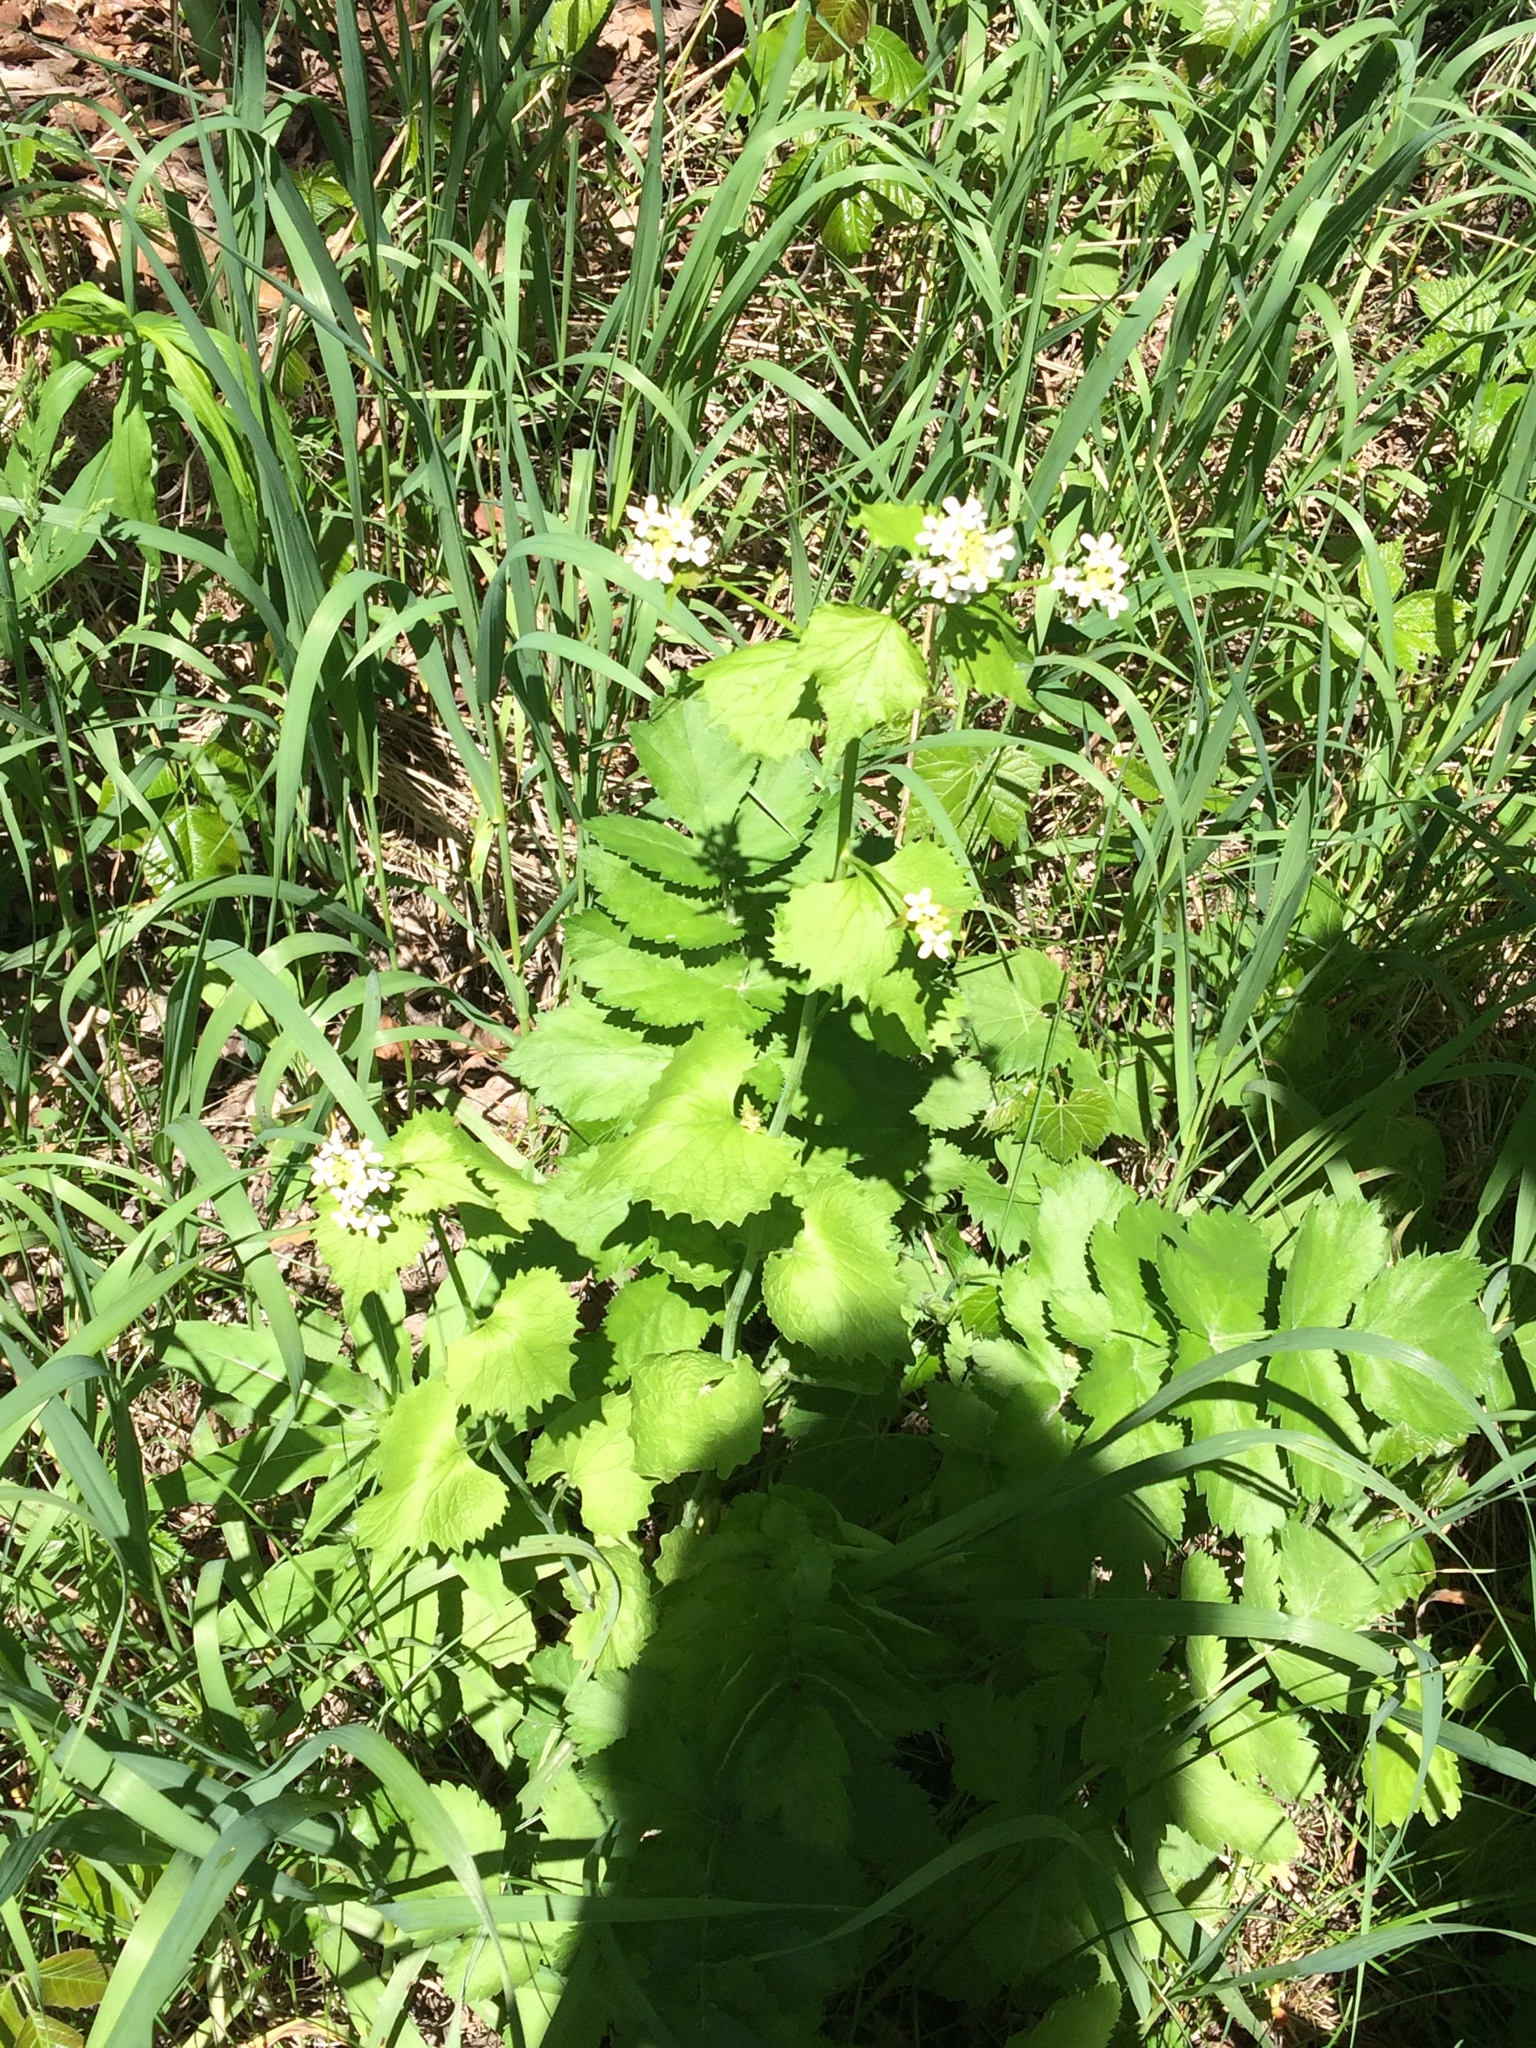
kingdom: Plantae
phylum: Tracheophyta
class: Magnoliopsida
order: Brassicales
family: Brassicaceae
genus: Alliaria
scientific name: Alliaria petiolata
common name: Garlic mustard
